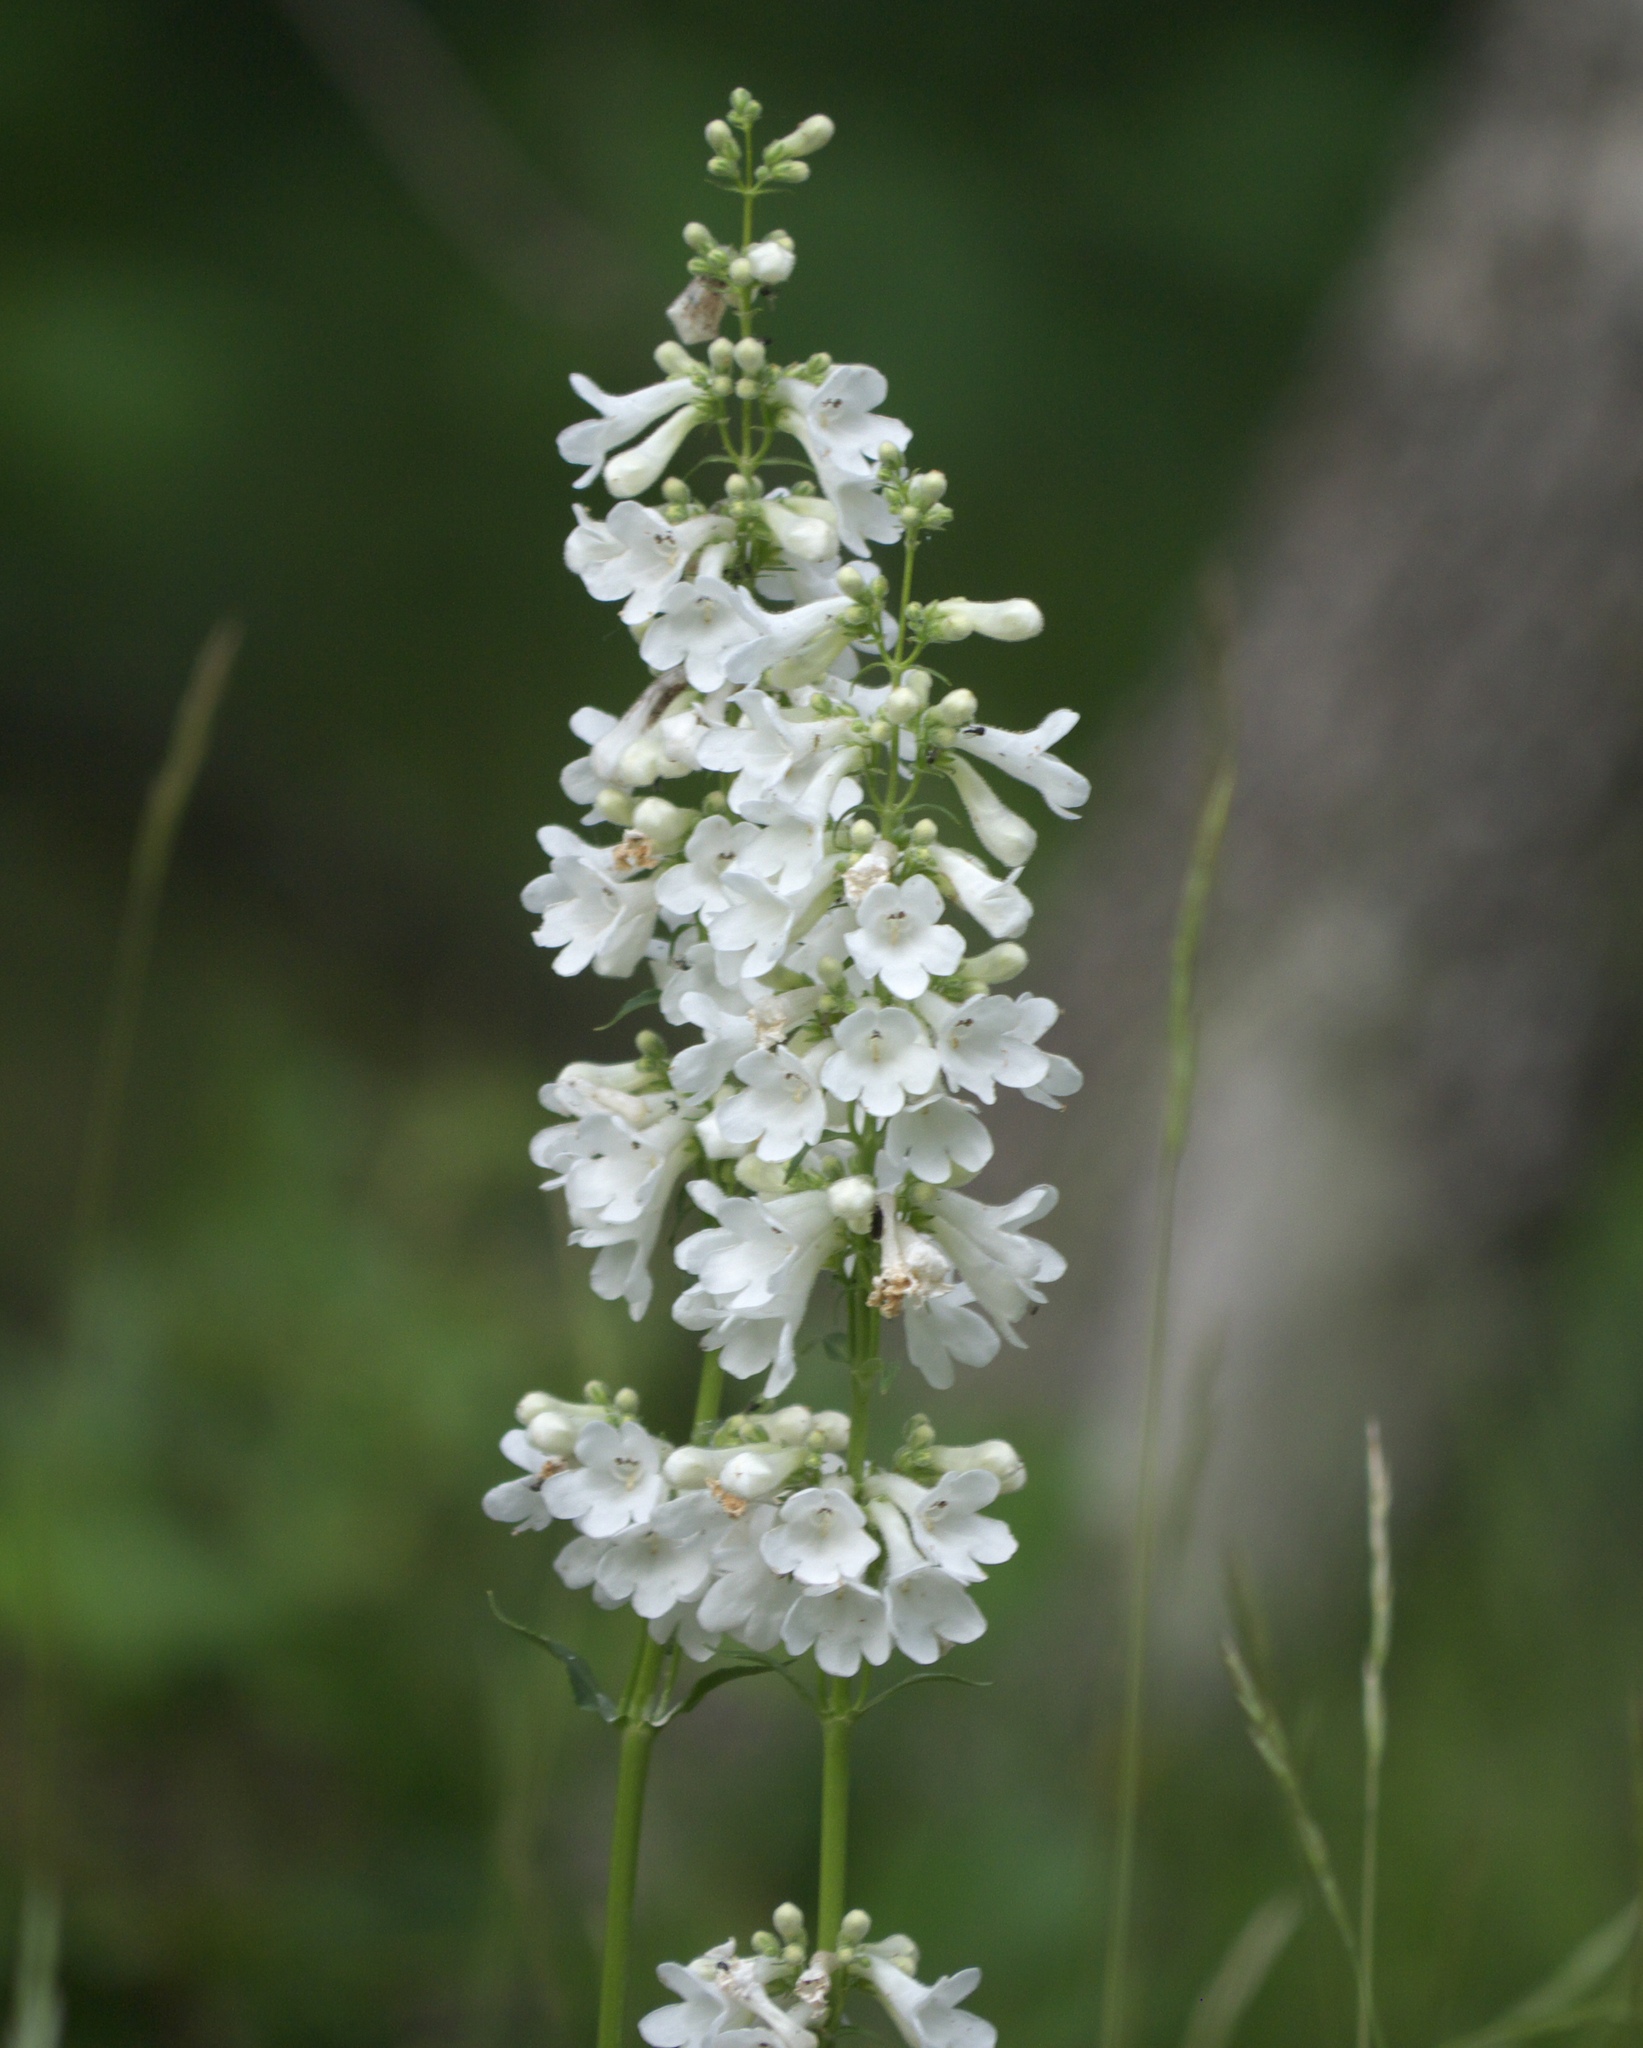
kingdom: Plantae
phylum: Tracheophyta
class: Magnoliopsida
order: Lamiales
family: Plantaginaceae
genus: Penstemon
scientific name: Penstemon tubaeflorus
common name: White wand beardtongue
